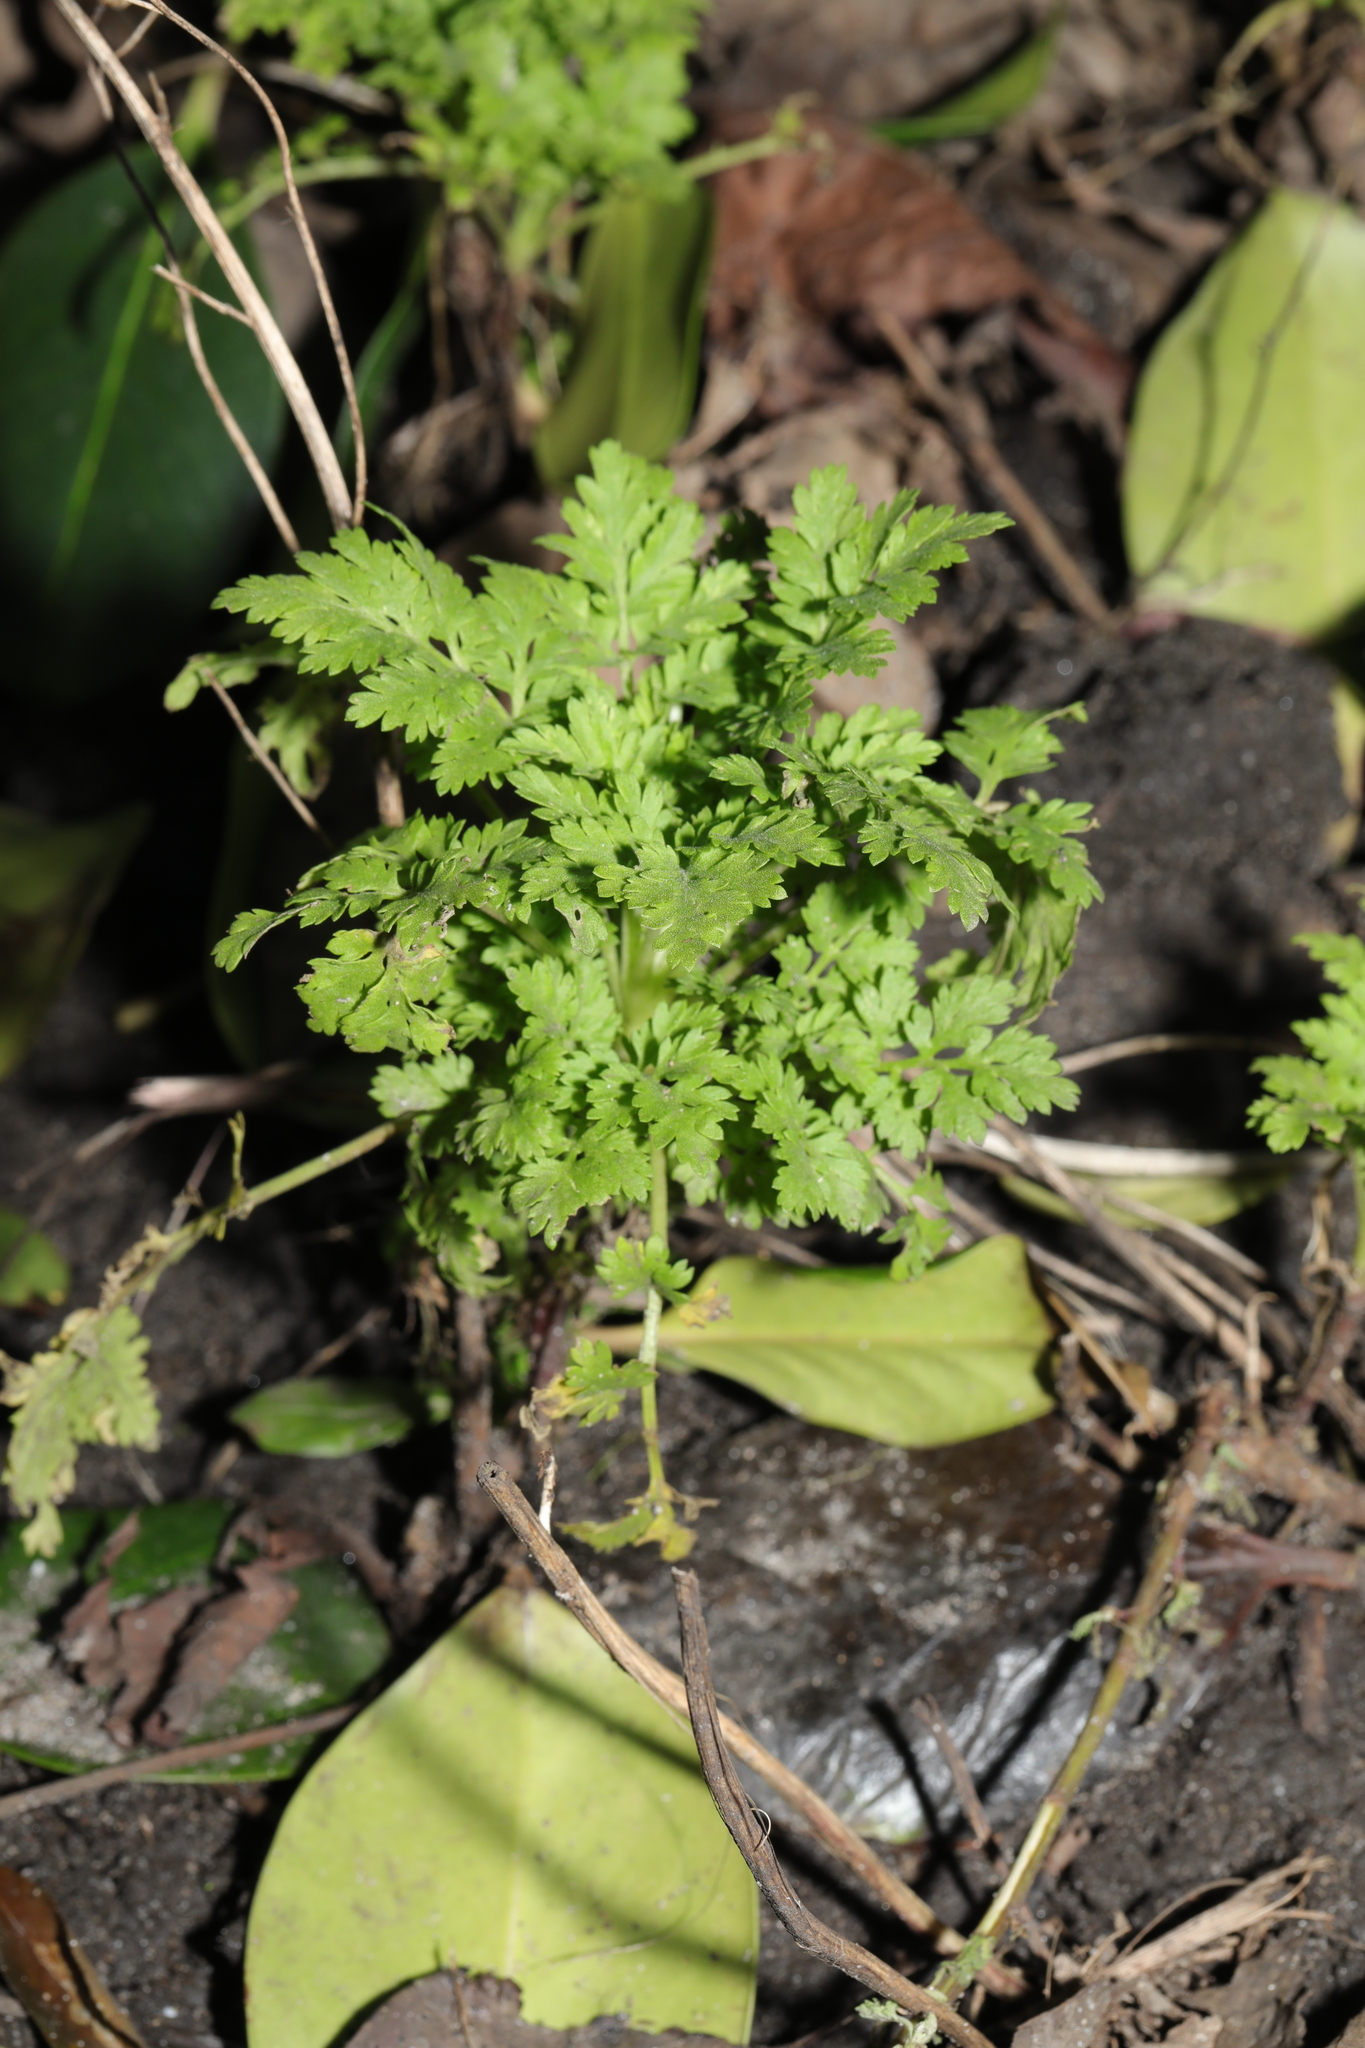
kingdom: Plantae
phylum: Tracheophyta
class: Magnoliopsida
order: Asterales
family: Asteraceae
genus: Tanacetum
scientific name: Tanacetum parthenium
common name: Feverfew
